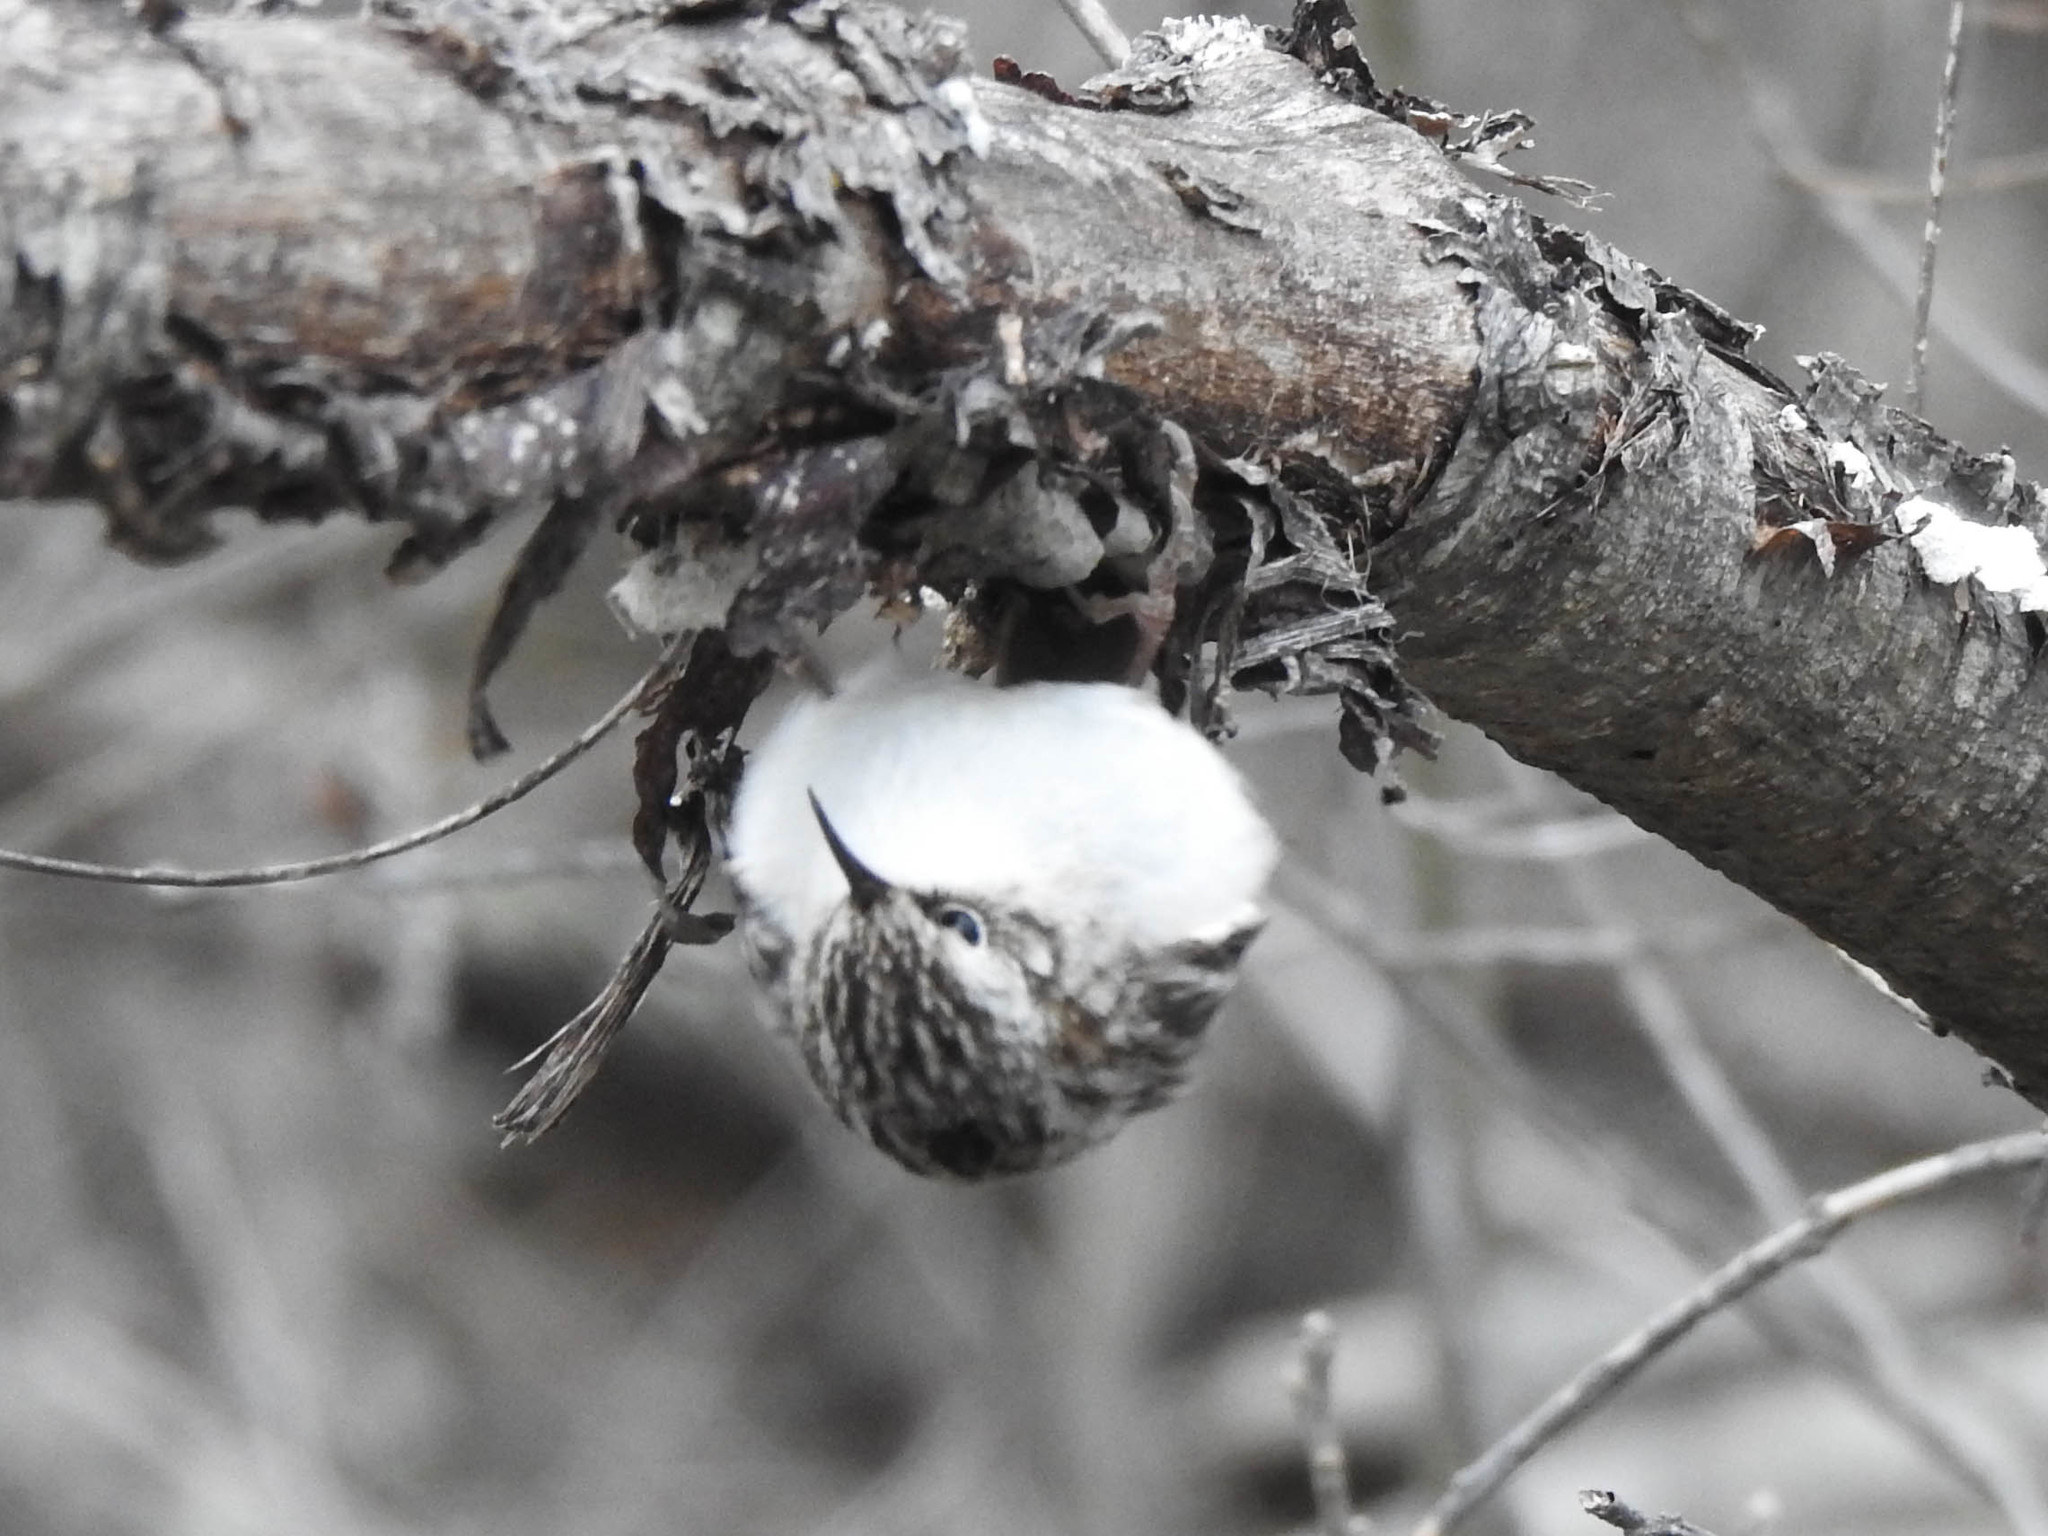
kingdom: Animalia
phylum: Chordata
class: Aves
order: Passeriformes
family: Certhiidae
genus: Certhia
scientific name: Certhia americana
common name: Brown creeper
